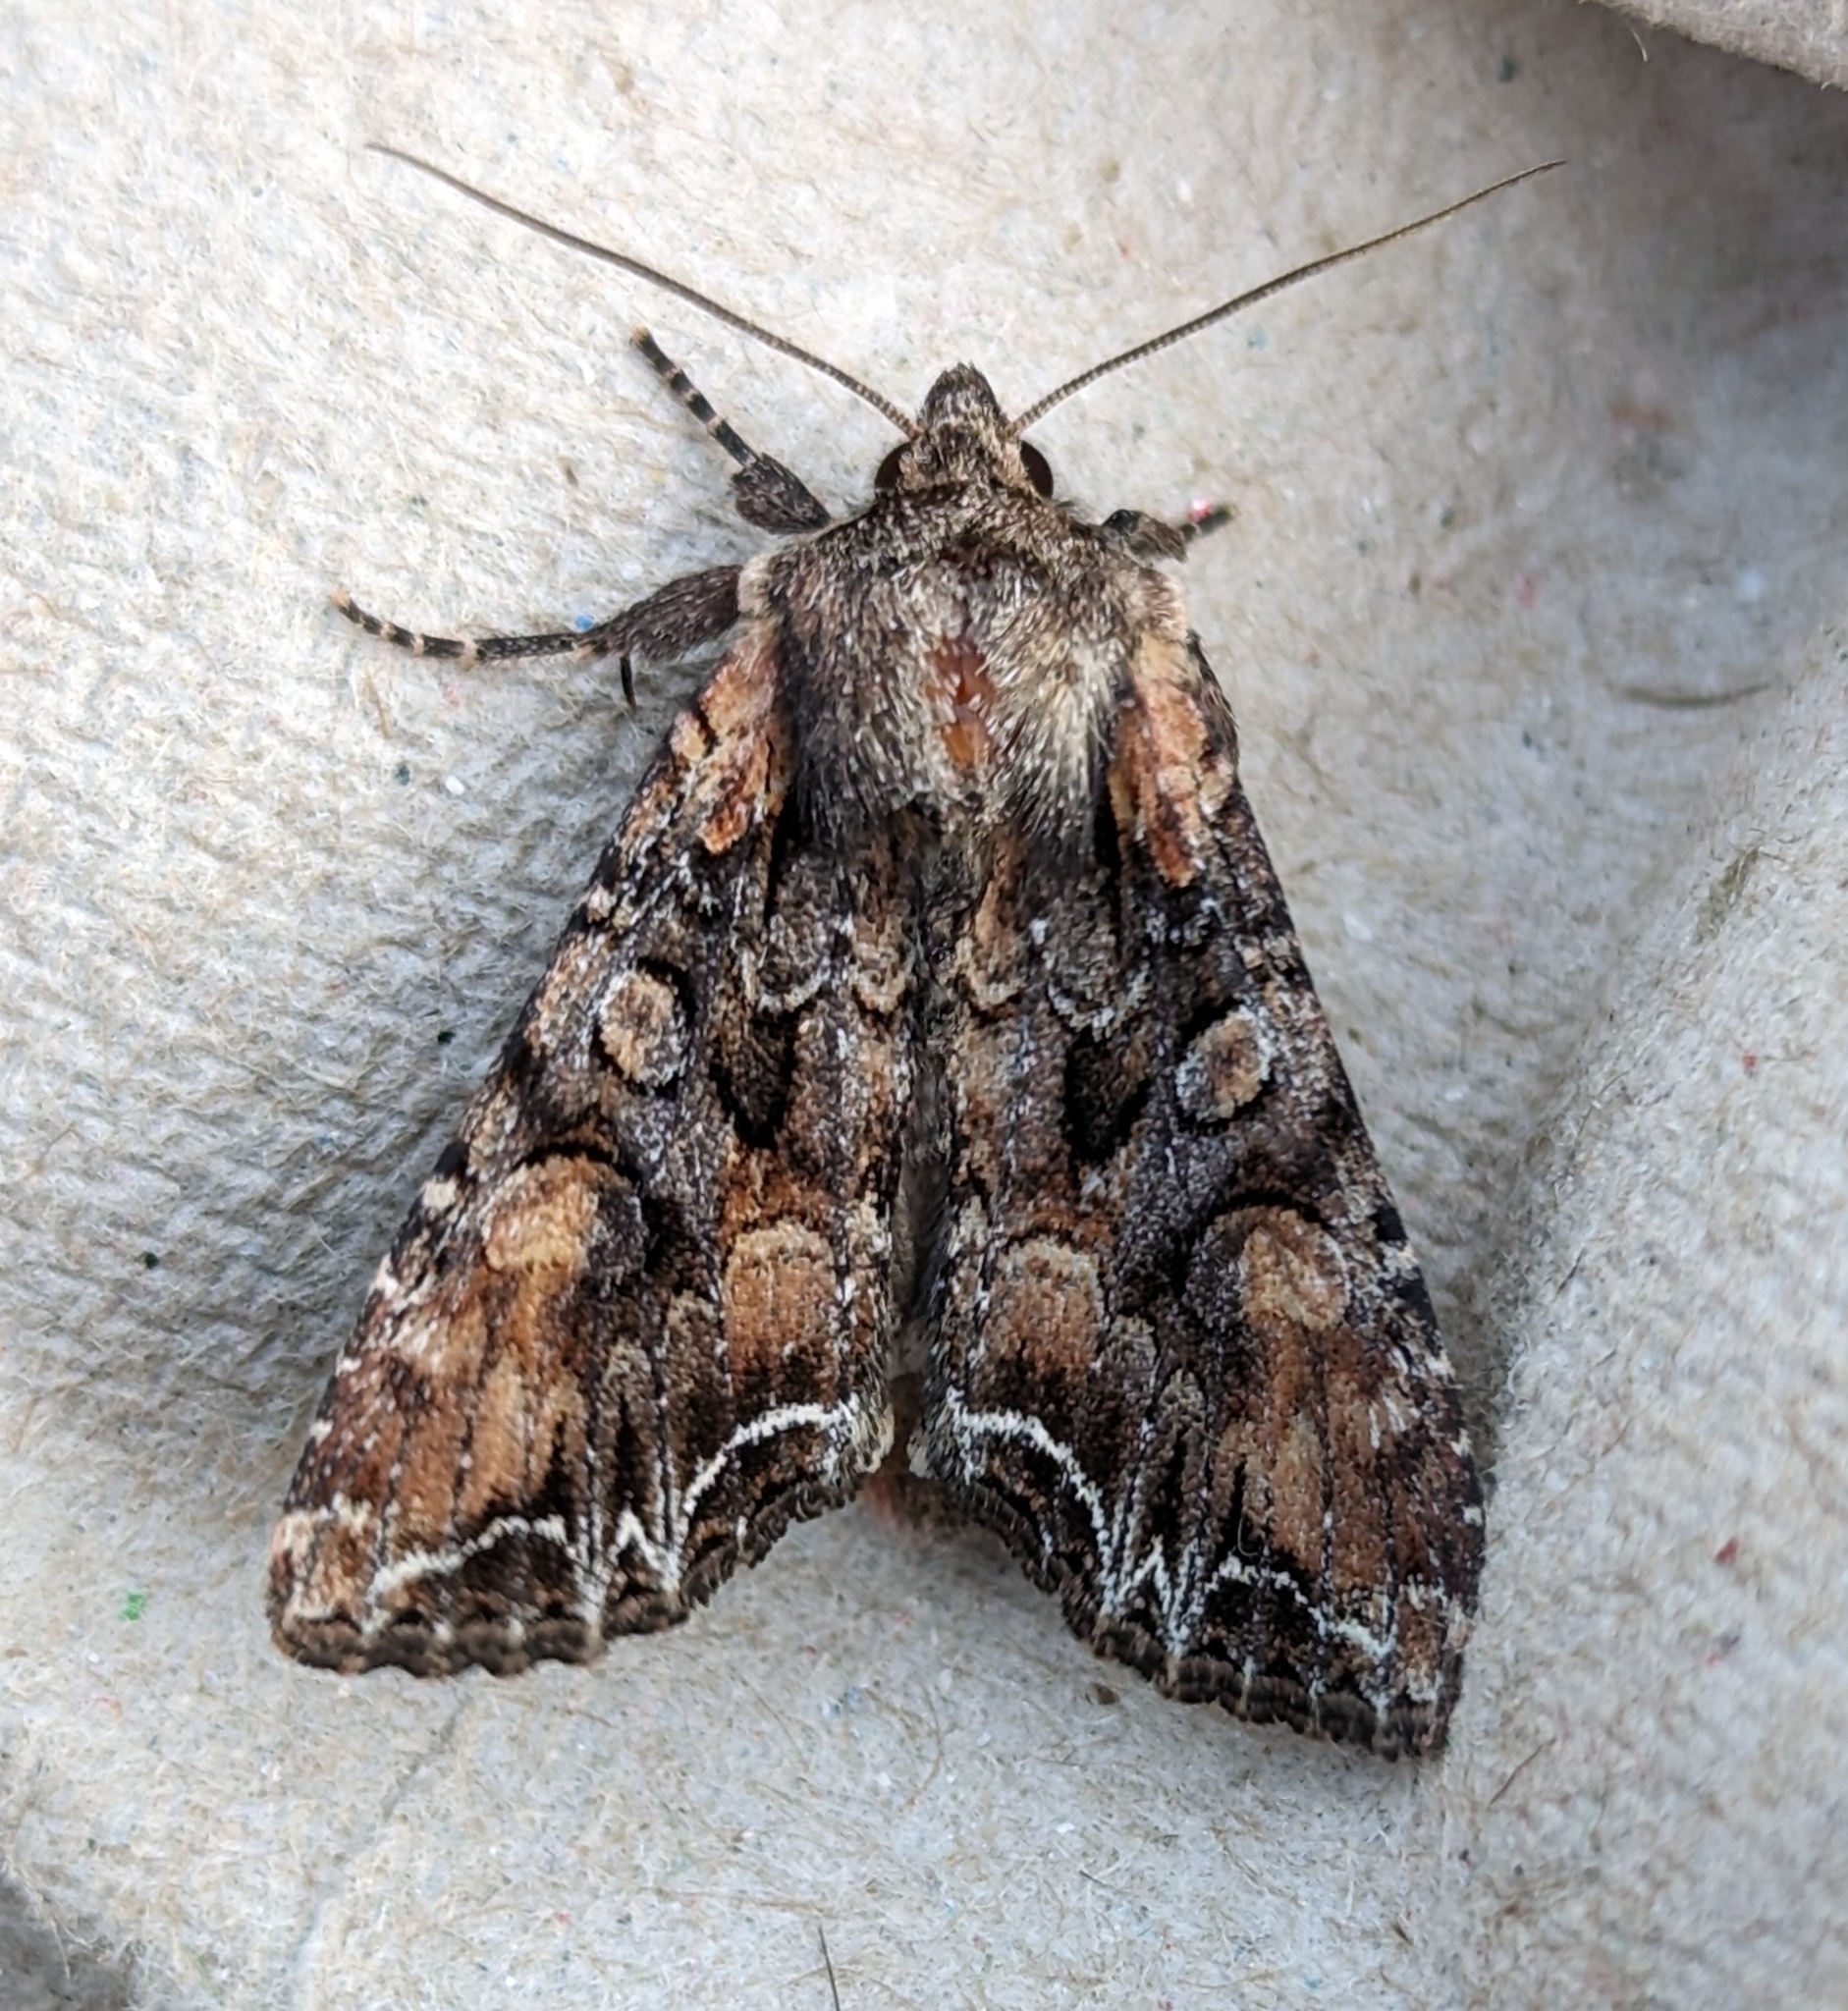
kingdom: Animalia
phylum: Arthropoda
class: Insecta
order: Lepidoptera
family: Noctuidae
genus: Lacanobia
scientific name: Lacanobia nevadae
